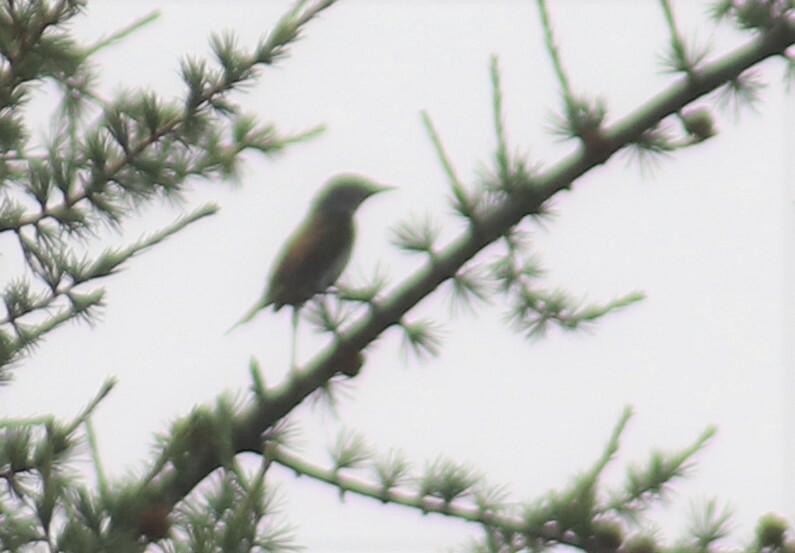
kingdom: Animalia
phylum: Chordata
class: Aves
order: Passeriformes
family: Parulidae
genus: Leiothlypis
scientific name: Leiothlypis peregrina
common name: Tennessee warbler
